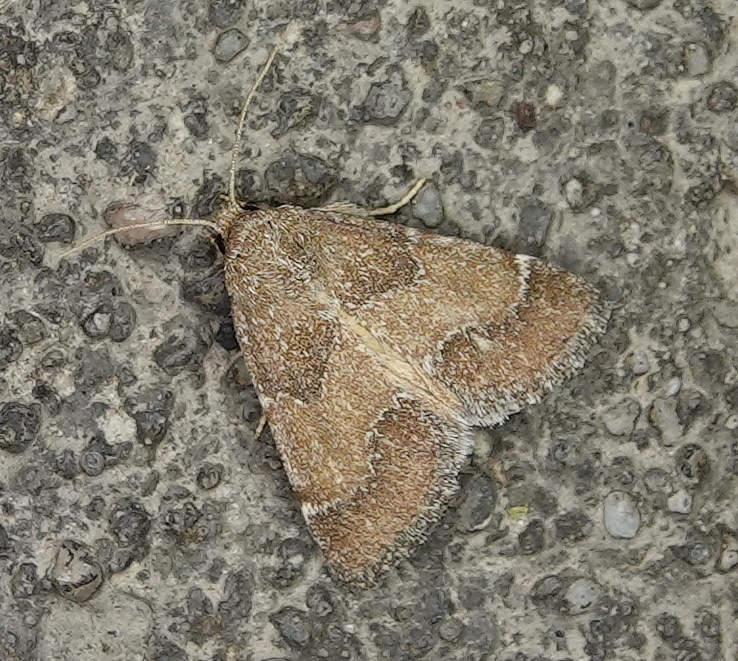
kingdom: Animalia
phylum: Arthropoda
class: Insecta
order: Lepidoptera
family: Noctuidae
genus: Schinia
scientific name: Schinia saturata
